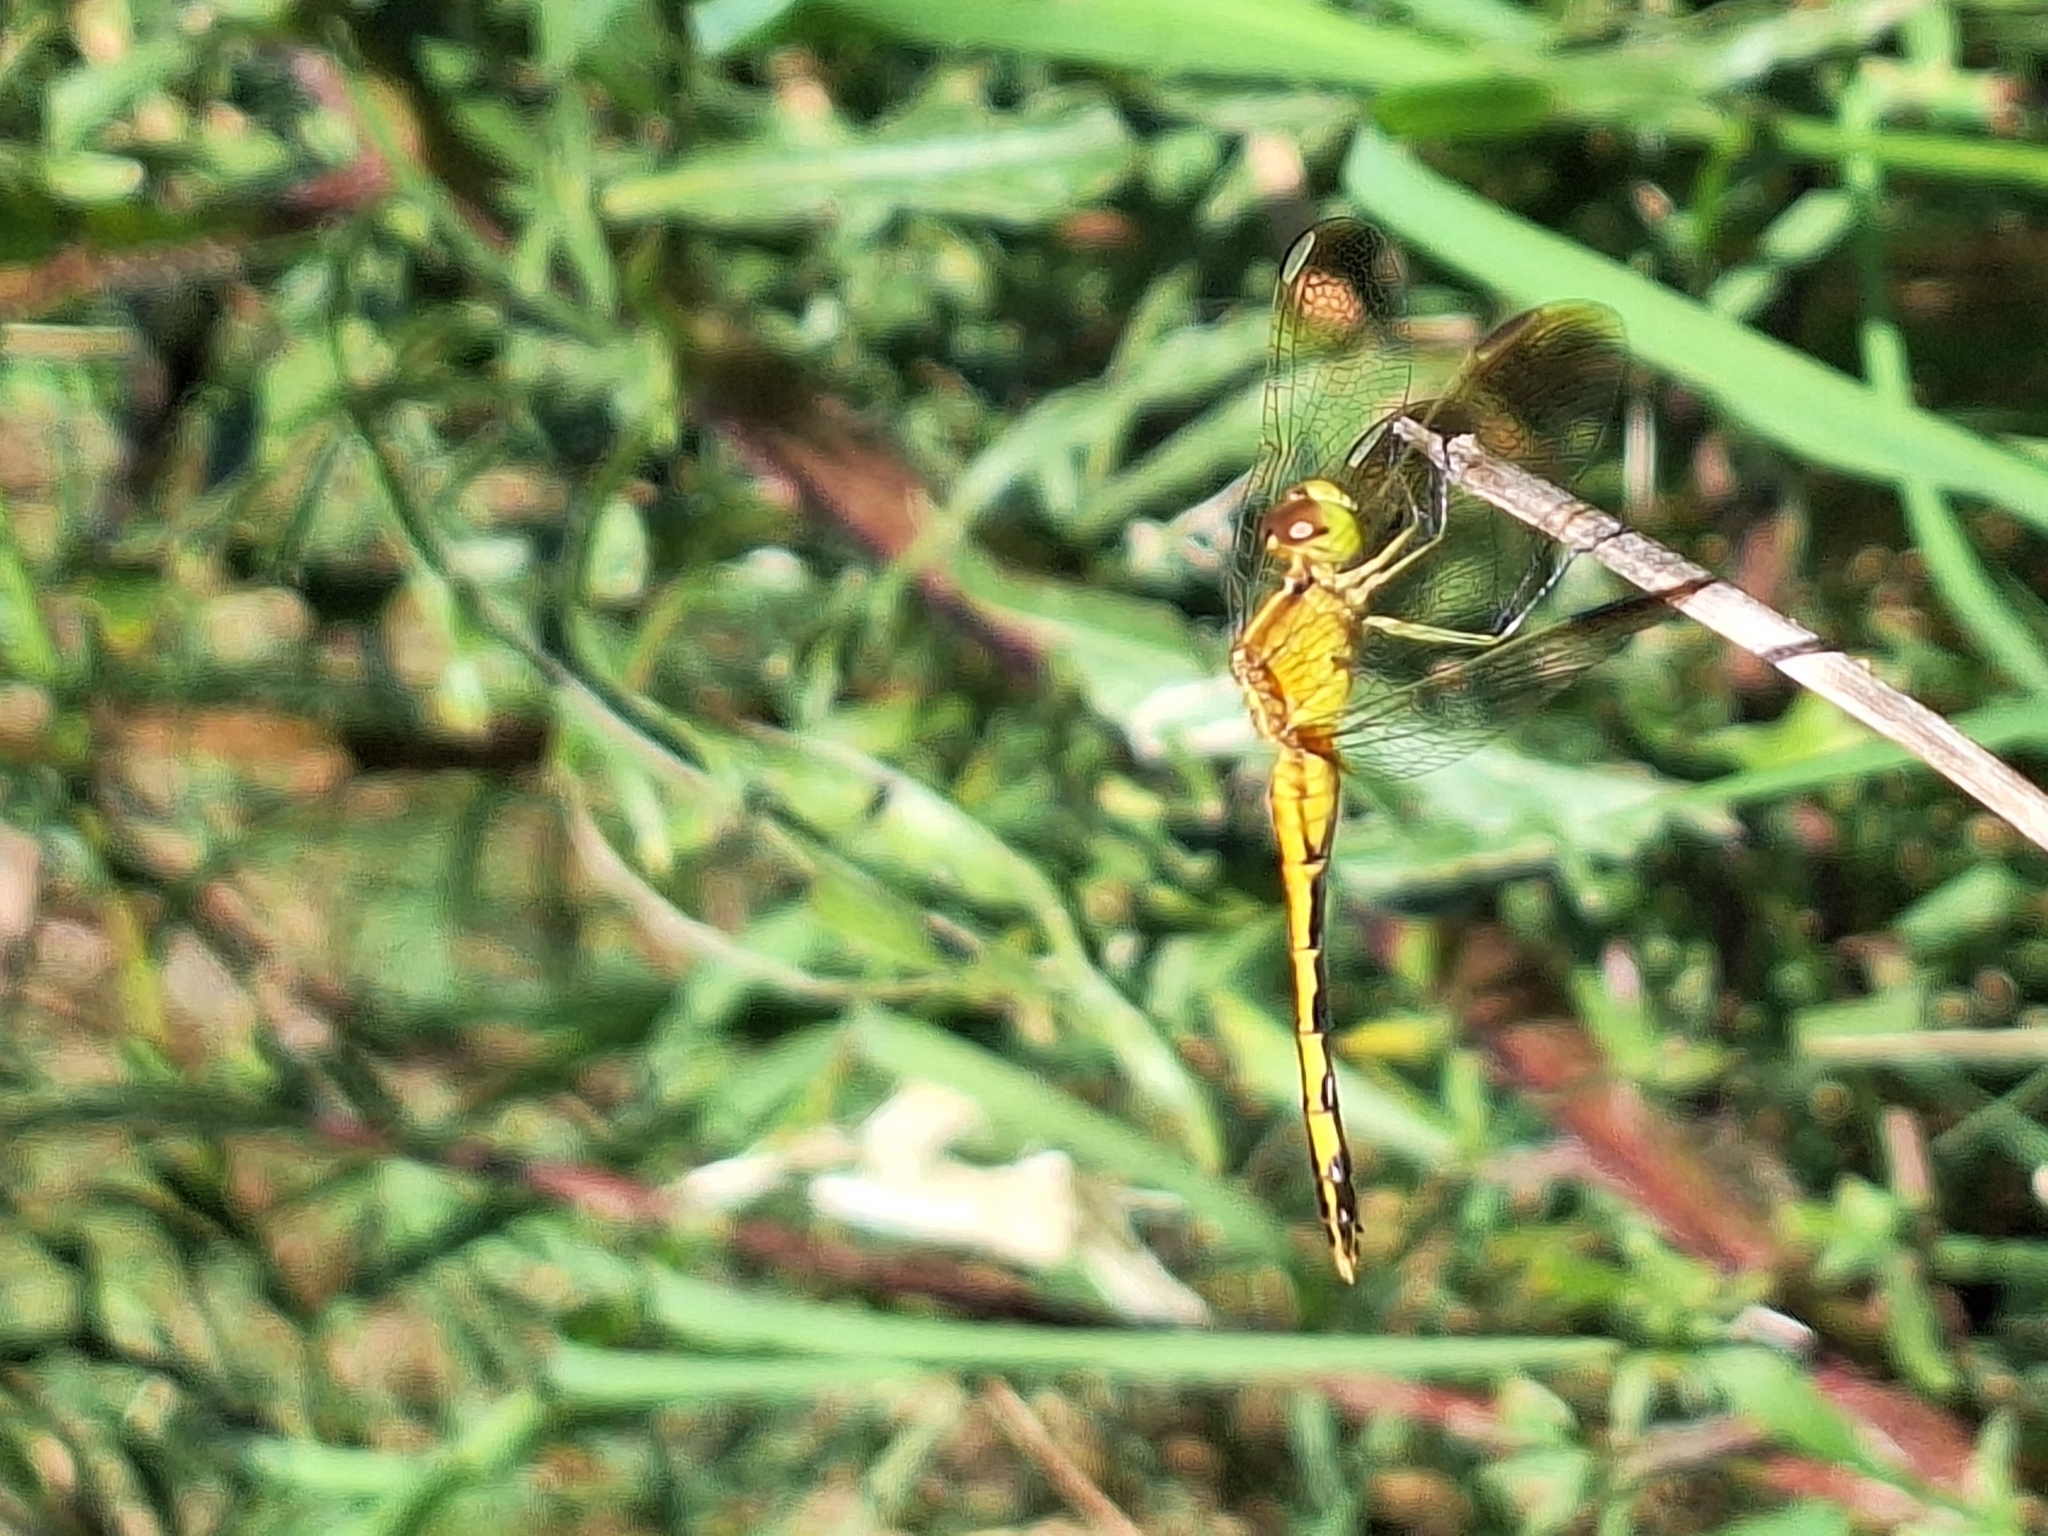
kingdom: Animalia
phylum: Arthropoda
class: Insecta
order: Odonata
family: Libellulidae
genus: Erythrodiplax
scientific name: Erythrodiplax nigricans
